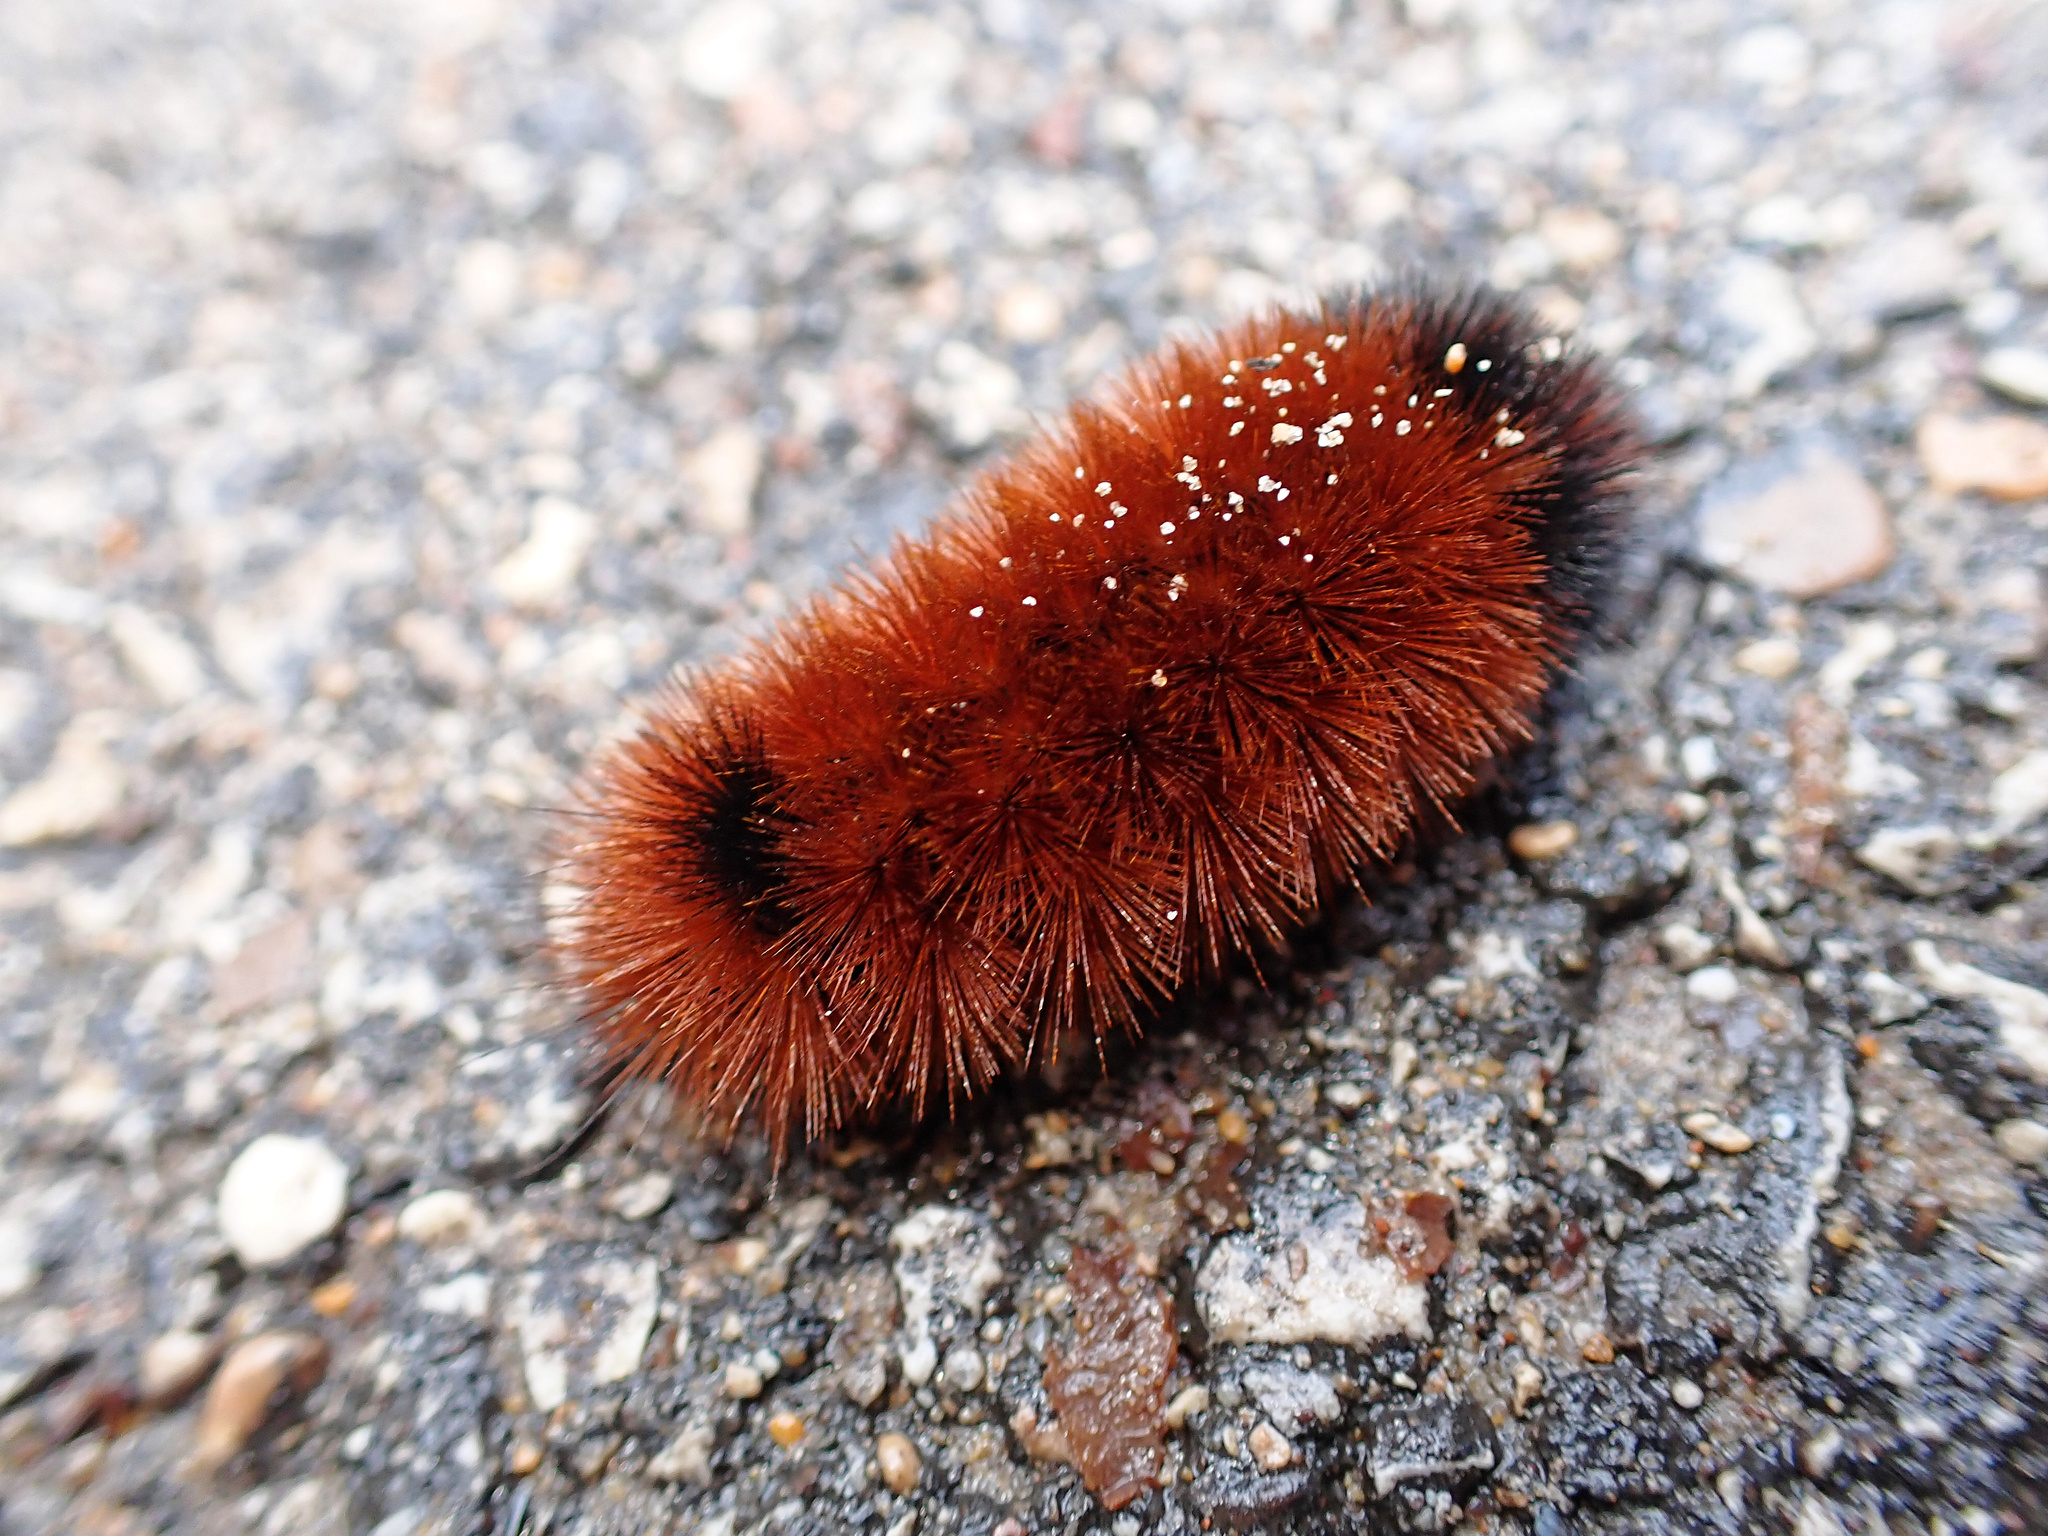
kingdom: Animalia
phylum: Arthropoda
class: Insecta
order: Lepidoptera
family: Erebidae
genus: Pyrrharctia
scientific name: Pyrrharctia isabella
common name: Isabella tiger moth
